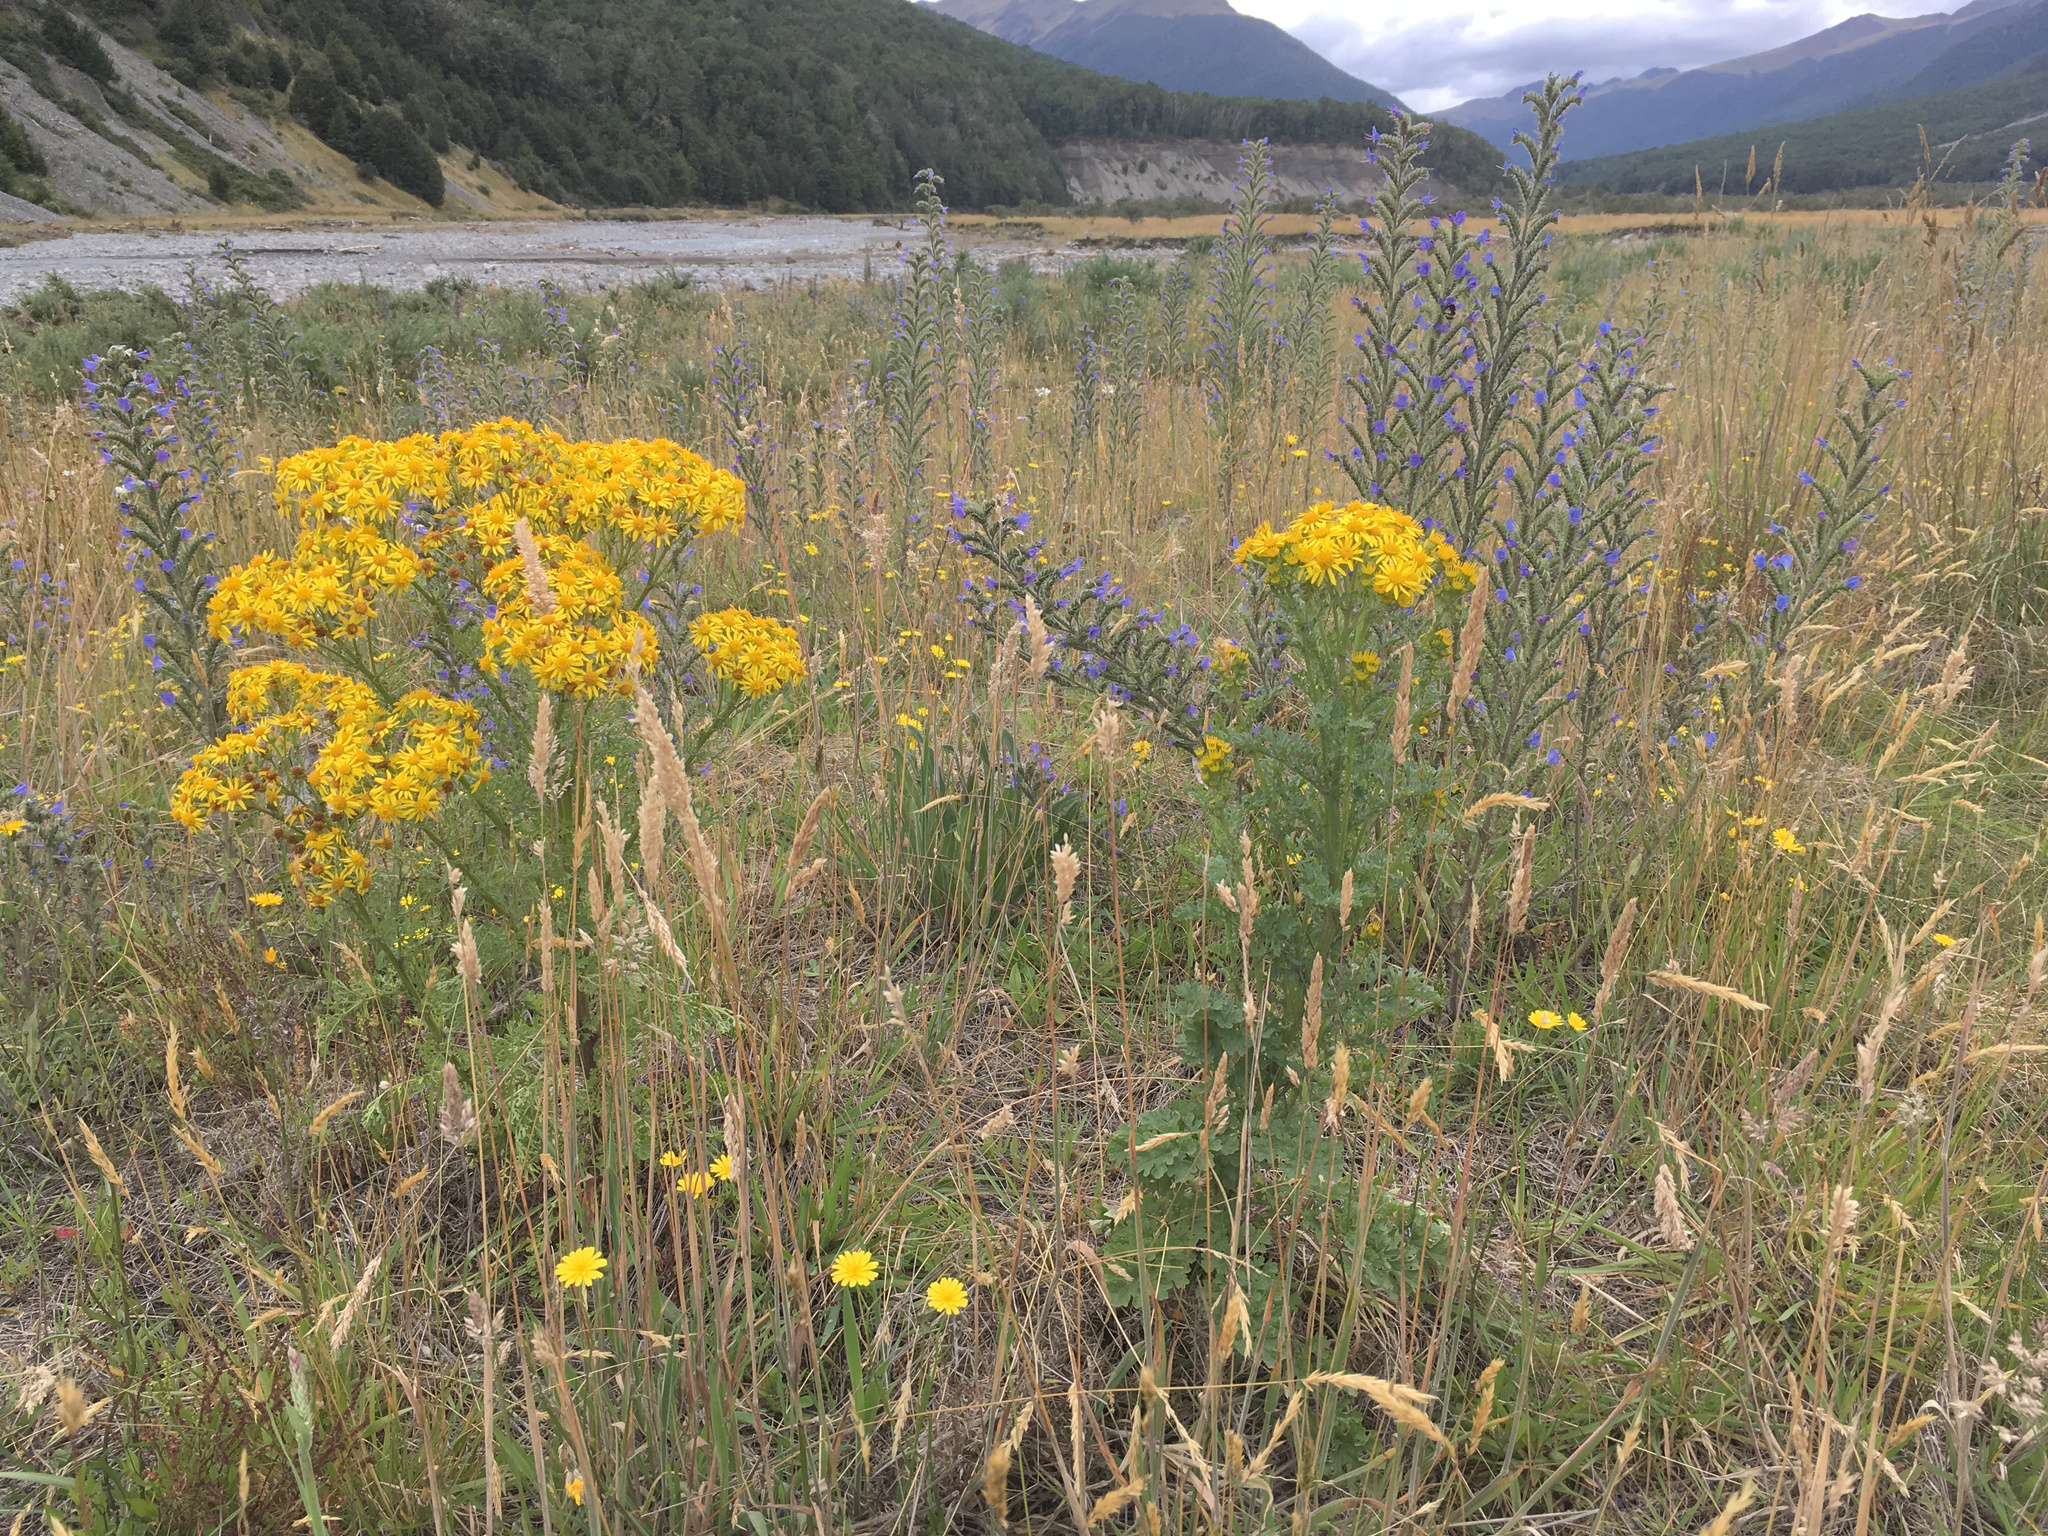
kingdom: Plantae
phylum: Tracheophyta
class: Magnoliopsida
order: Asterales
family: Asteraceae
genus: Jacobaea
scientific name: Jacobaea vulgaris
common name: Stinking willie
